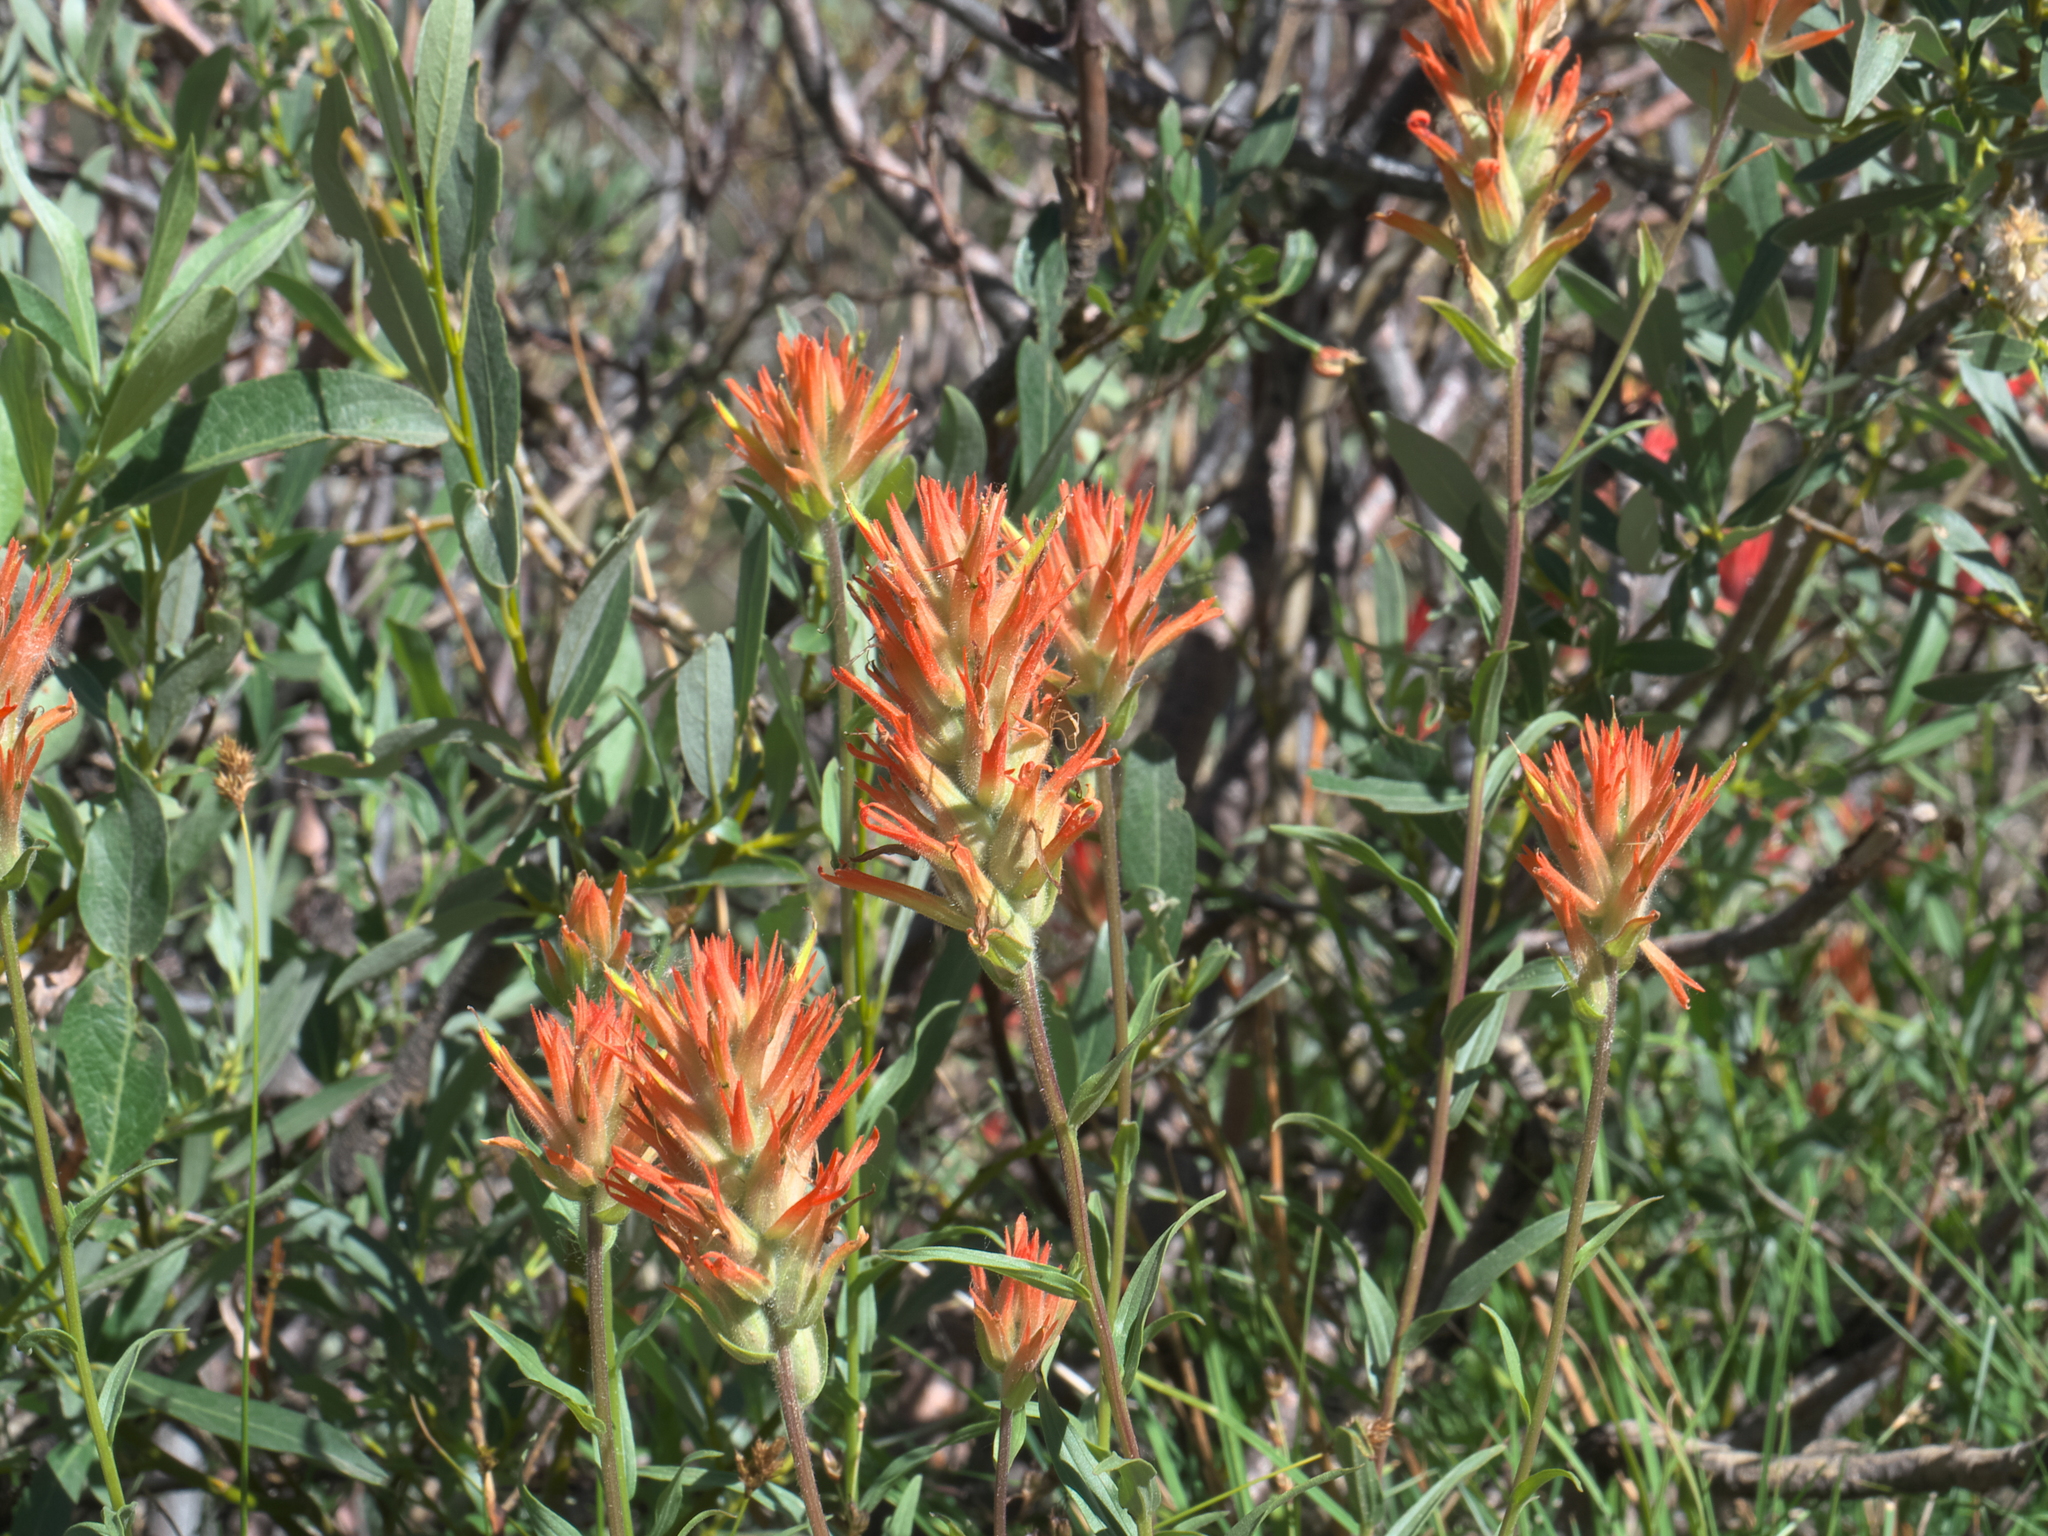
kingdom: Plantae
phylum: Tracheophyta
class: Magnoliopsida
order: Lamiales
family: Orobanchaceae
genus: Castilleja
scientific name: Castilleja miniata
